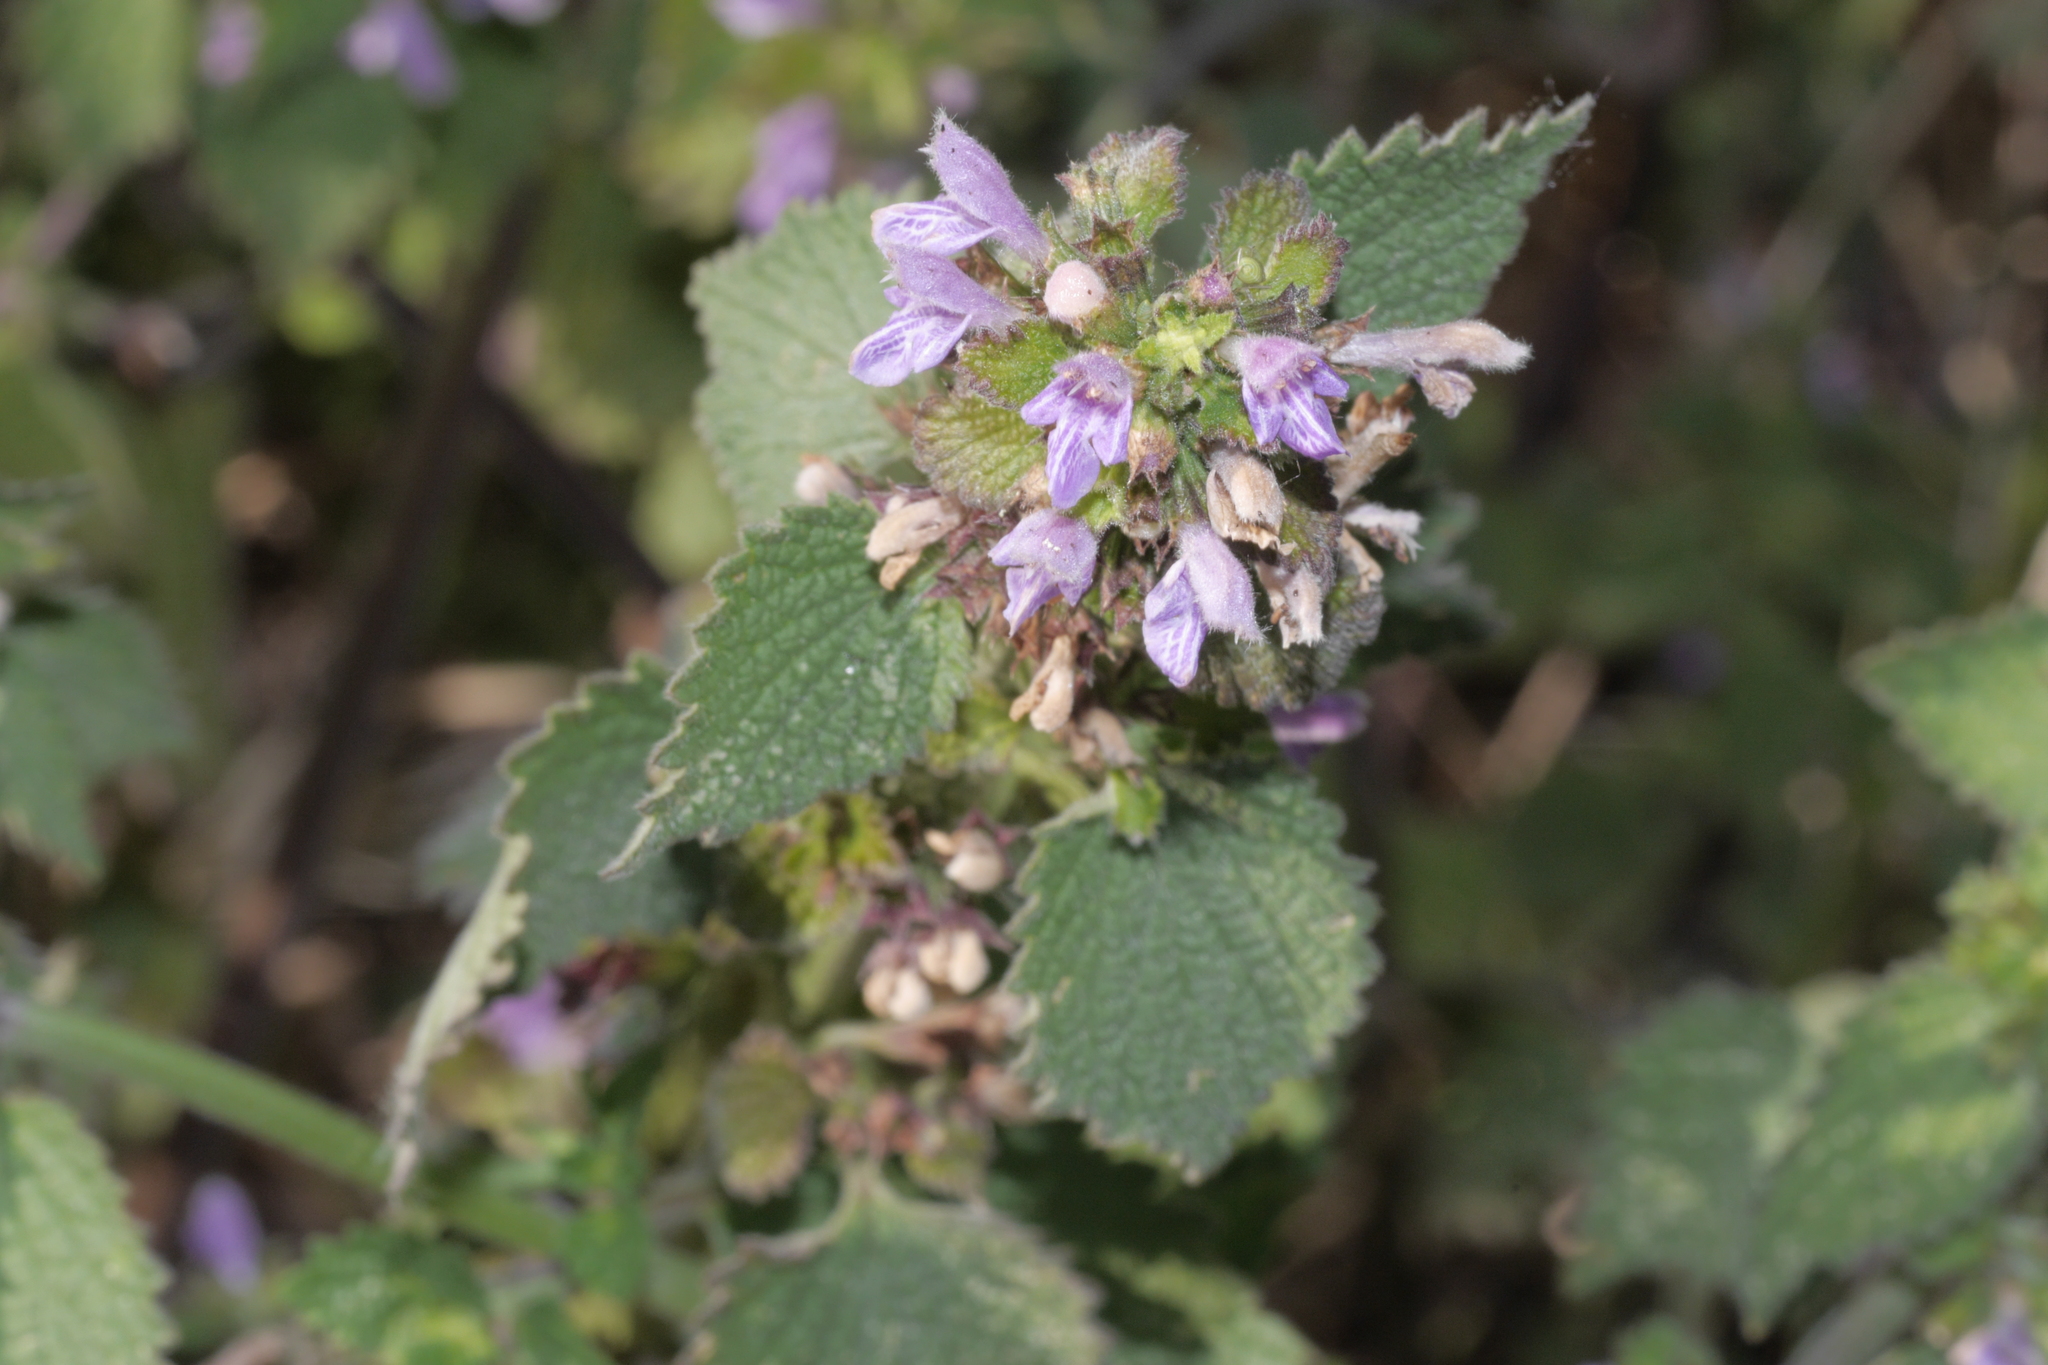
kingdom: Plantae
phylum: Tracheophyta
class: Magnoliopsida
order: Lamiales
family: Lamiaceae
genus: Ballota
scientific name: Ballota nigra
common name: Black horehound
